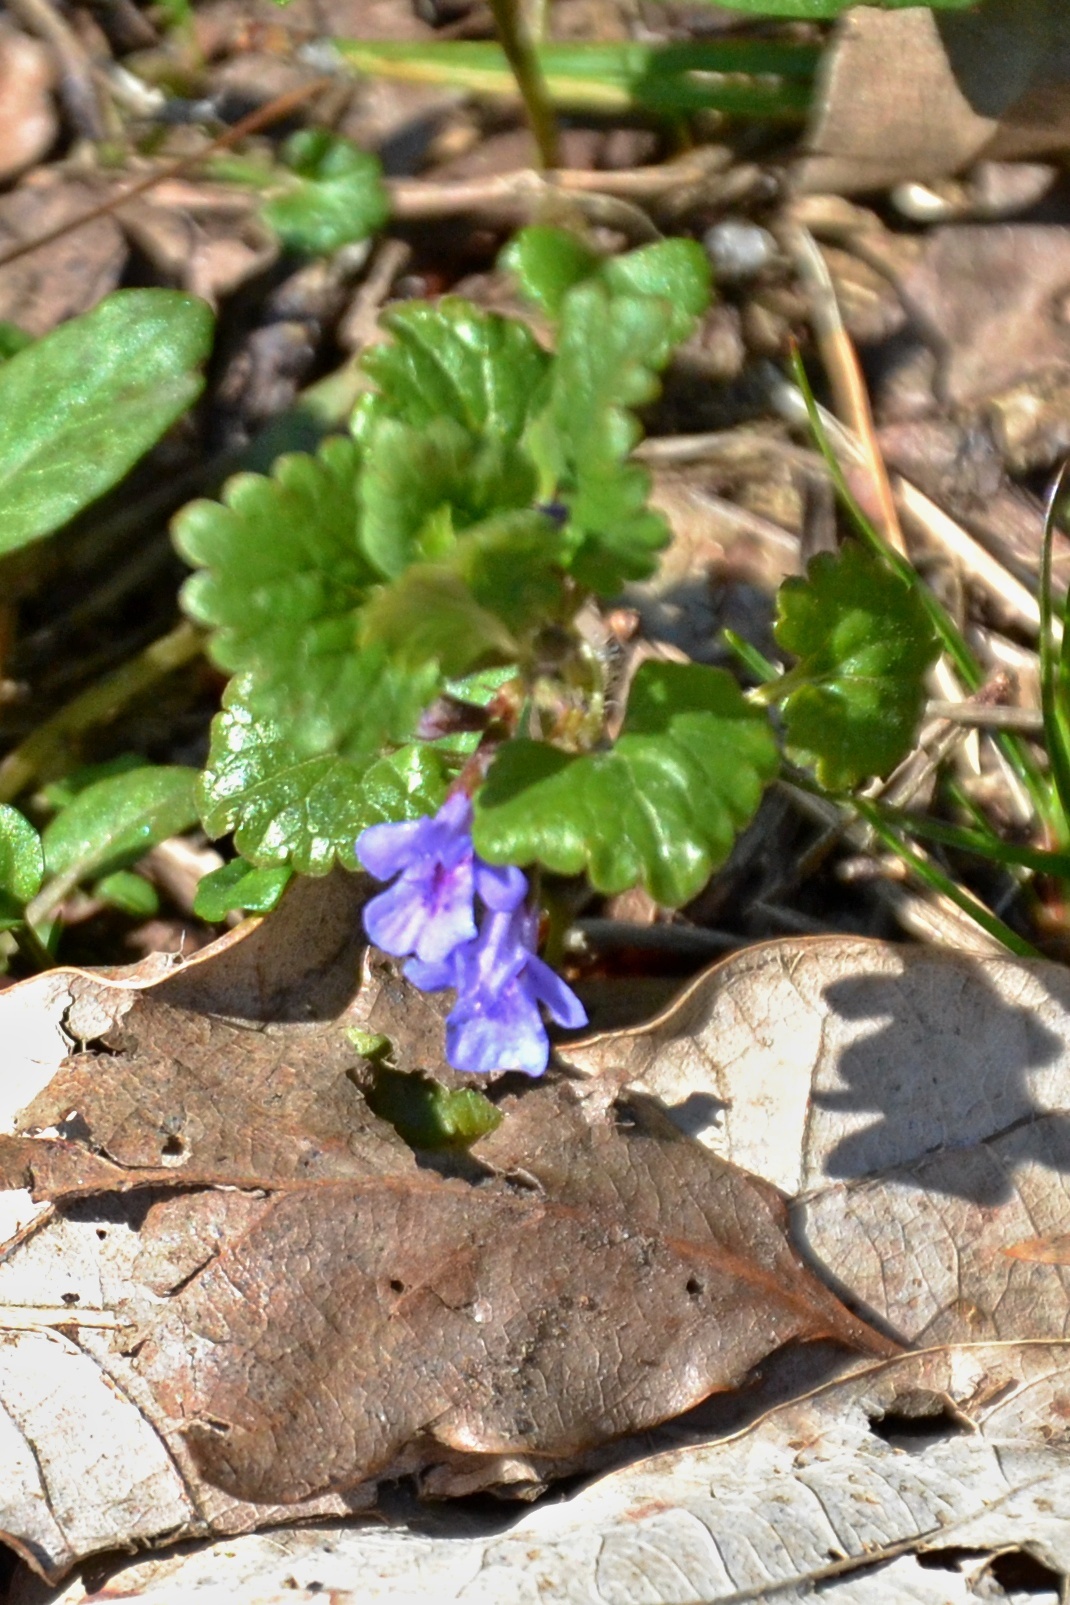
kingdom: Plantae
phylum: Tracheophyta
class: Magnoliopsida
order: Lamiales
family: Lamiaceae
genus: Glechoma
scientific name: Glechoma hederacea
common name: Ground ivy
